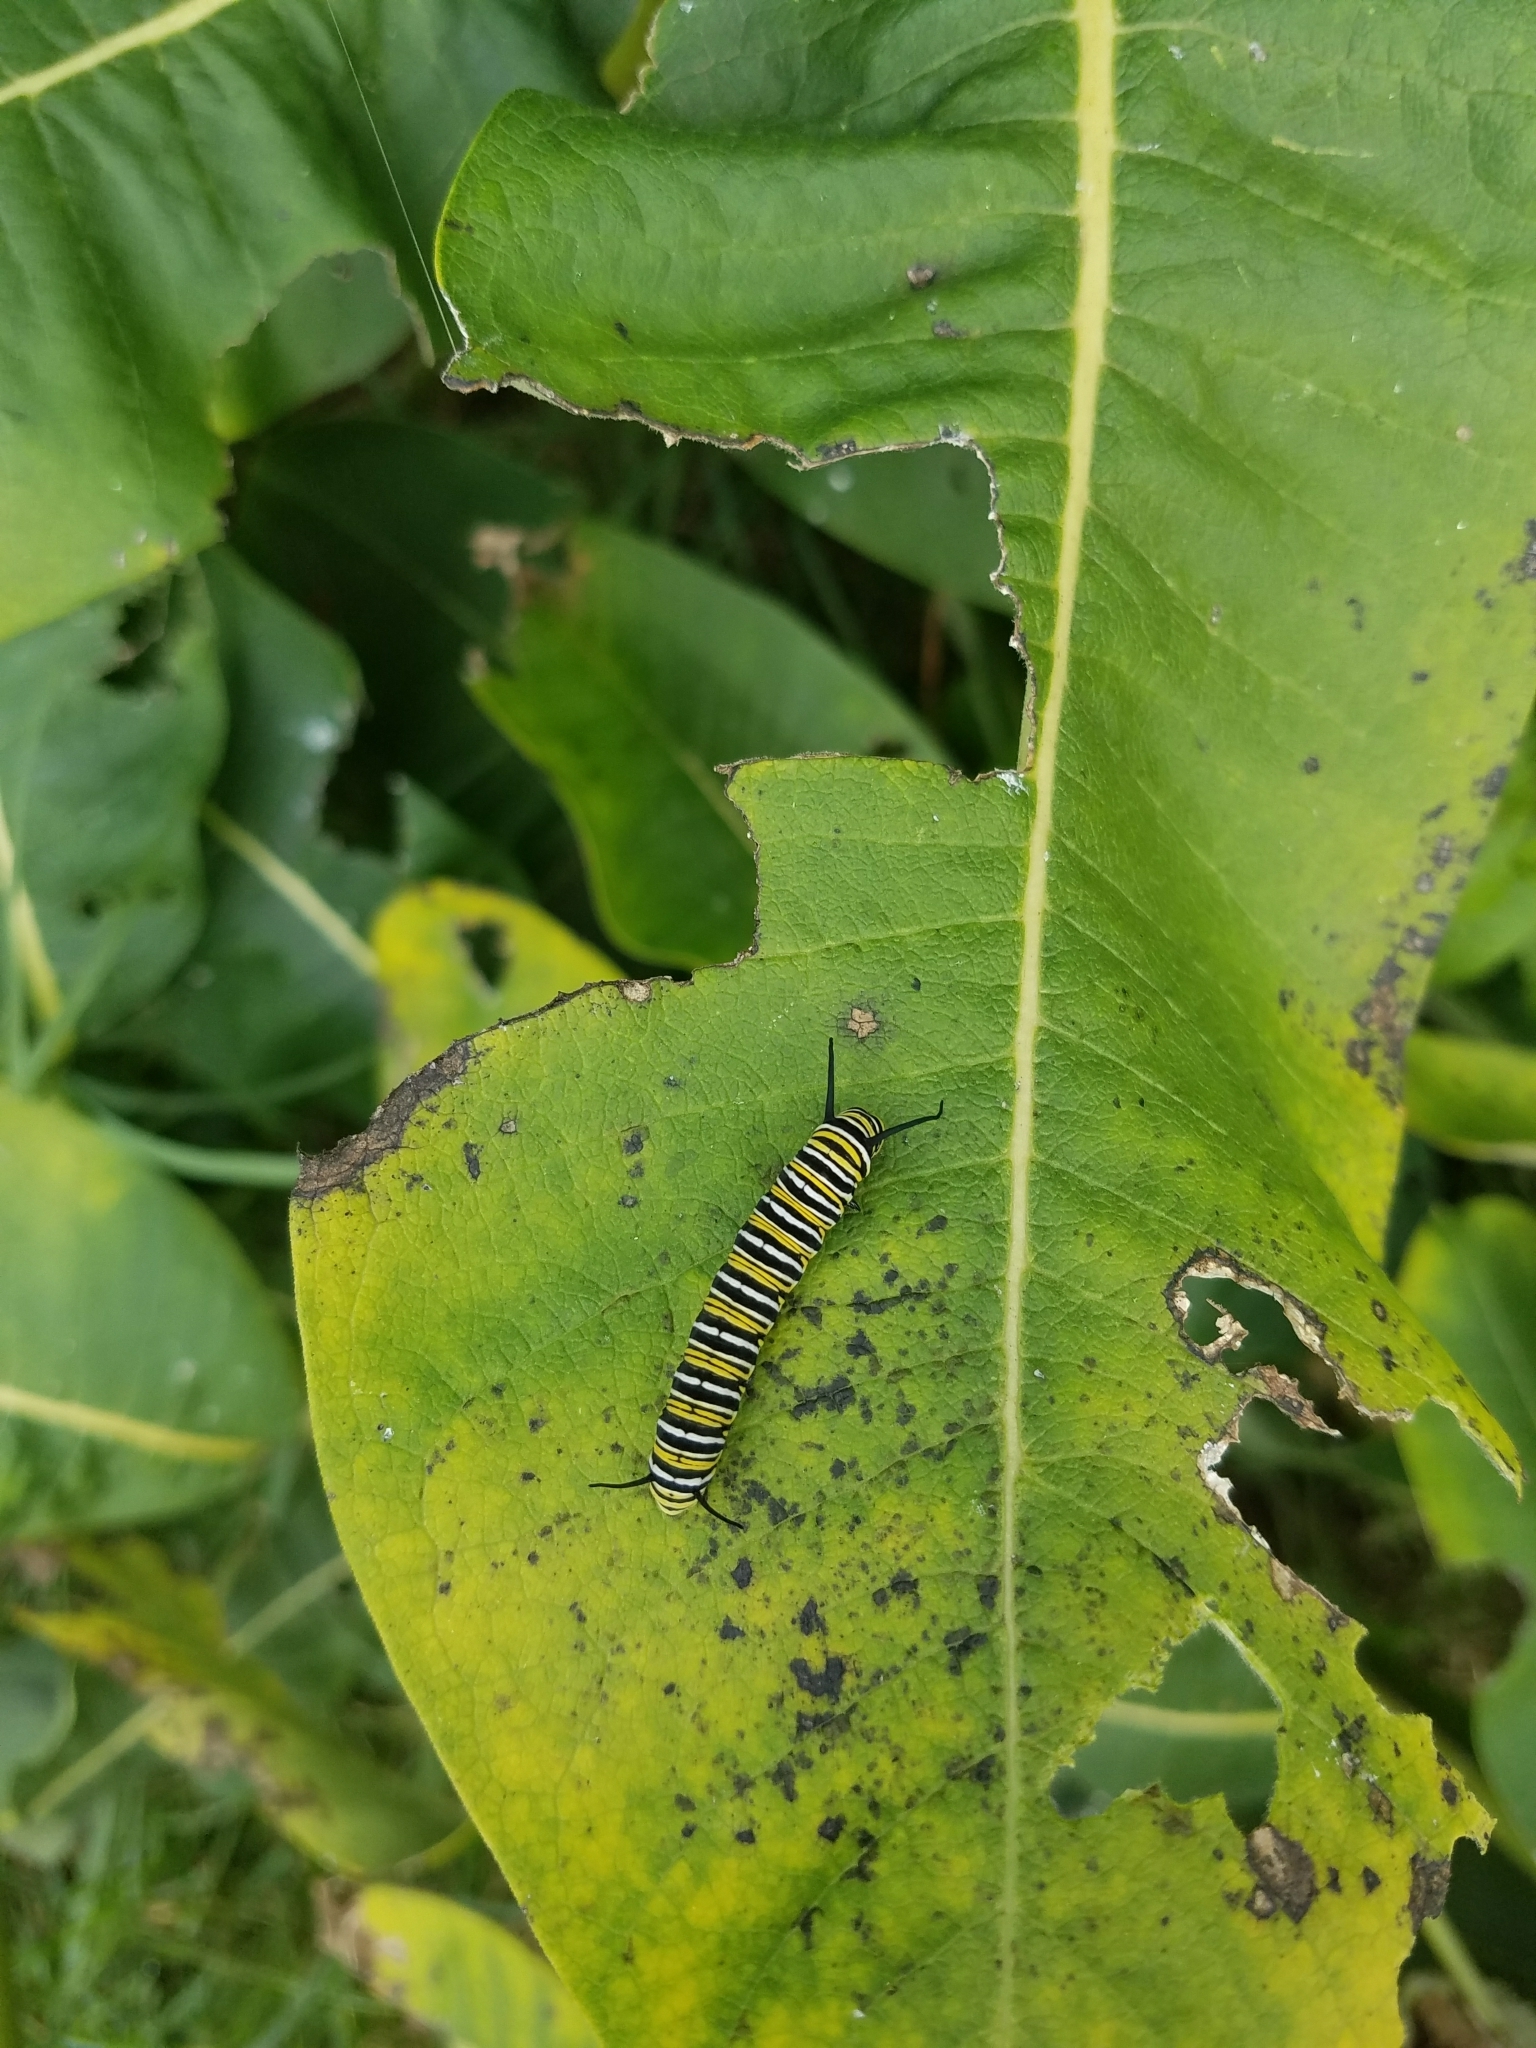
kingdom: Animalia
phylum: Arthropoda
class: Insecta
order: Lepidoptera
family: Nymphalidae
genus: Danaus
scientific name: Danaus plexippus
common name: Monarch
